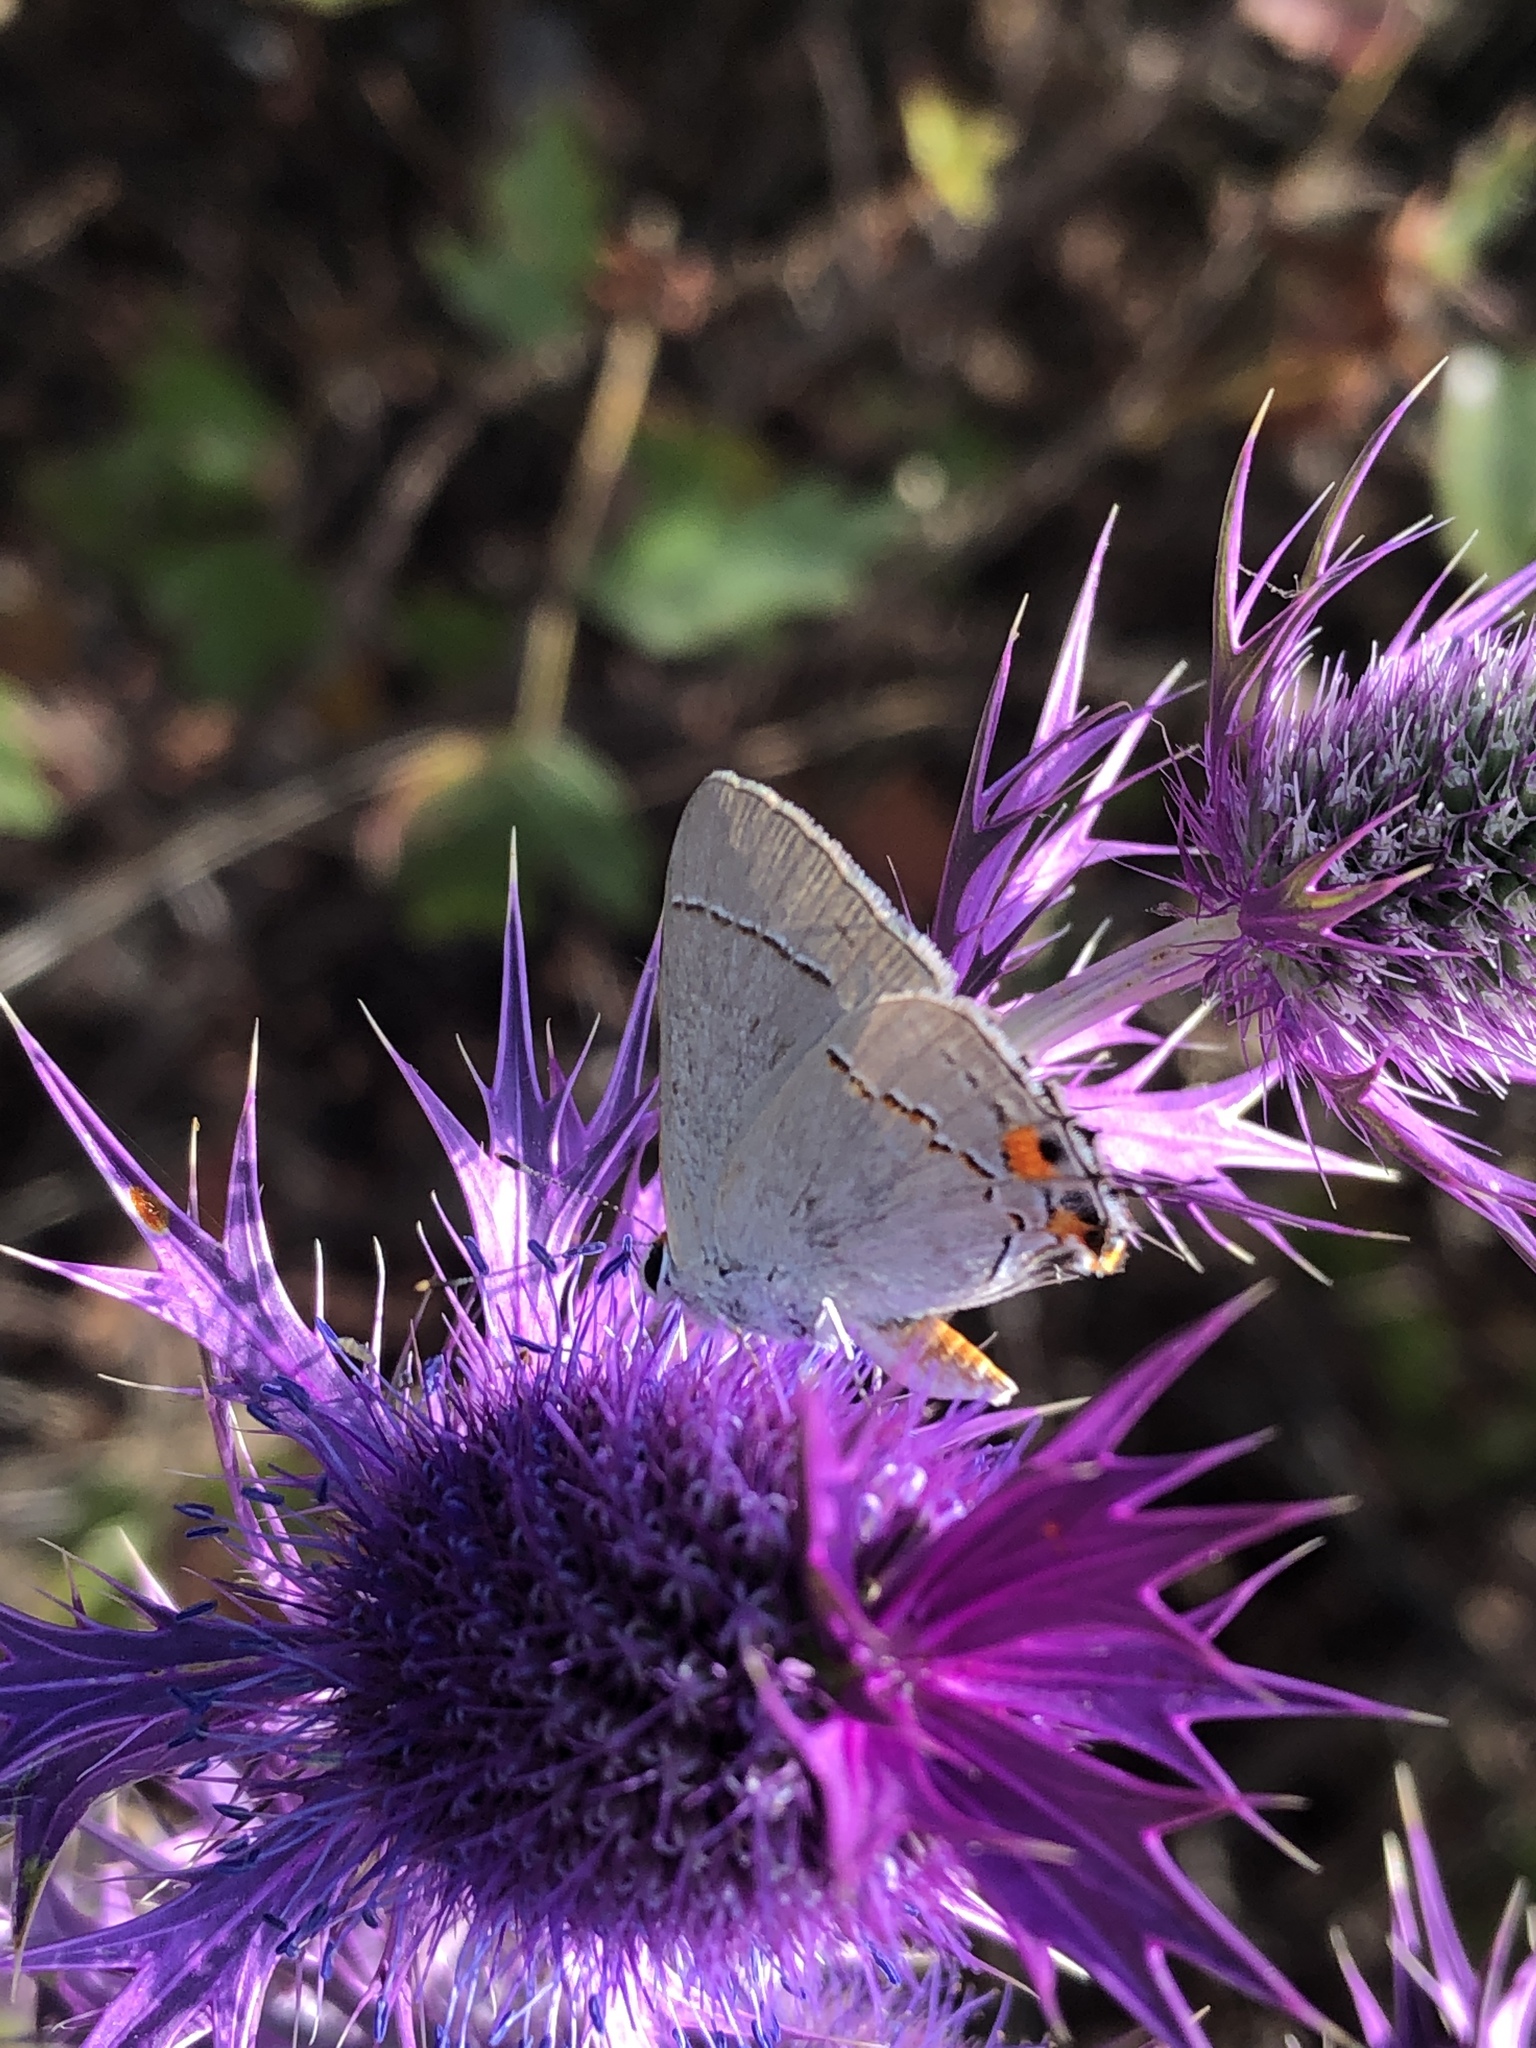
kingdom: Animalia
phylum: Arthropoda
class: Insecta
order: Lepidoptera
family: Lycaenidae
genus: Strymon
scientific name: Strymon melinus
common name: Gray hairstreak
